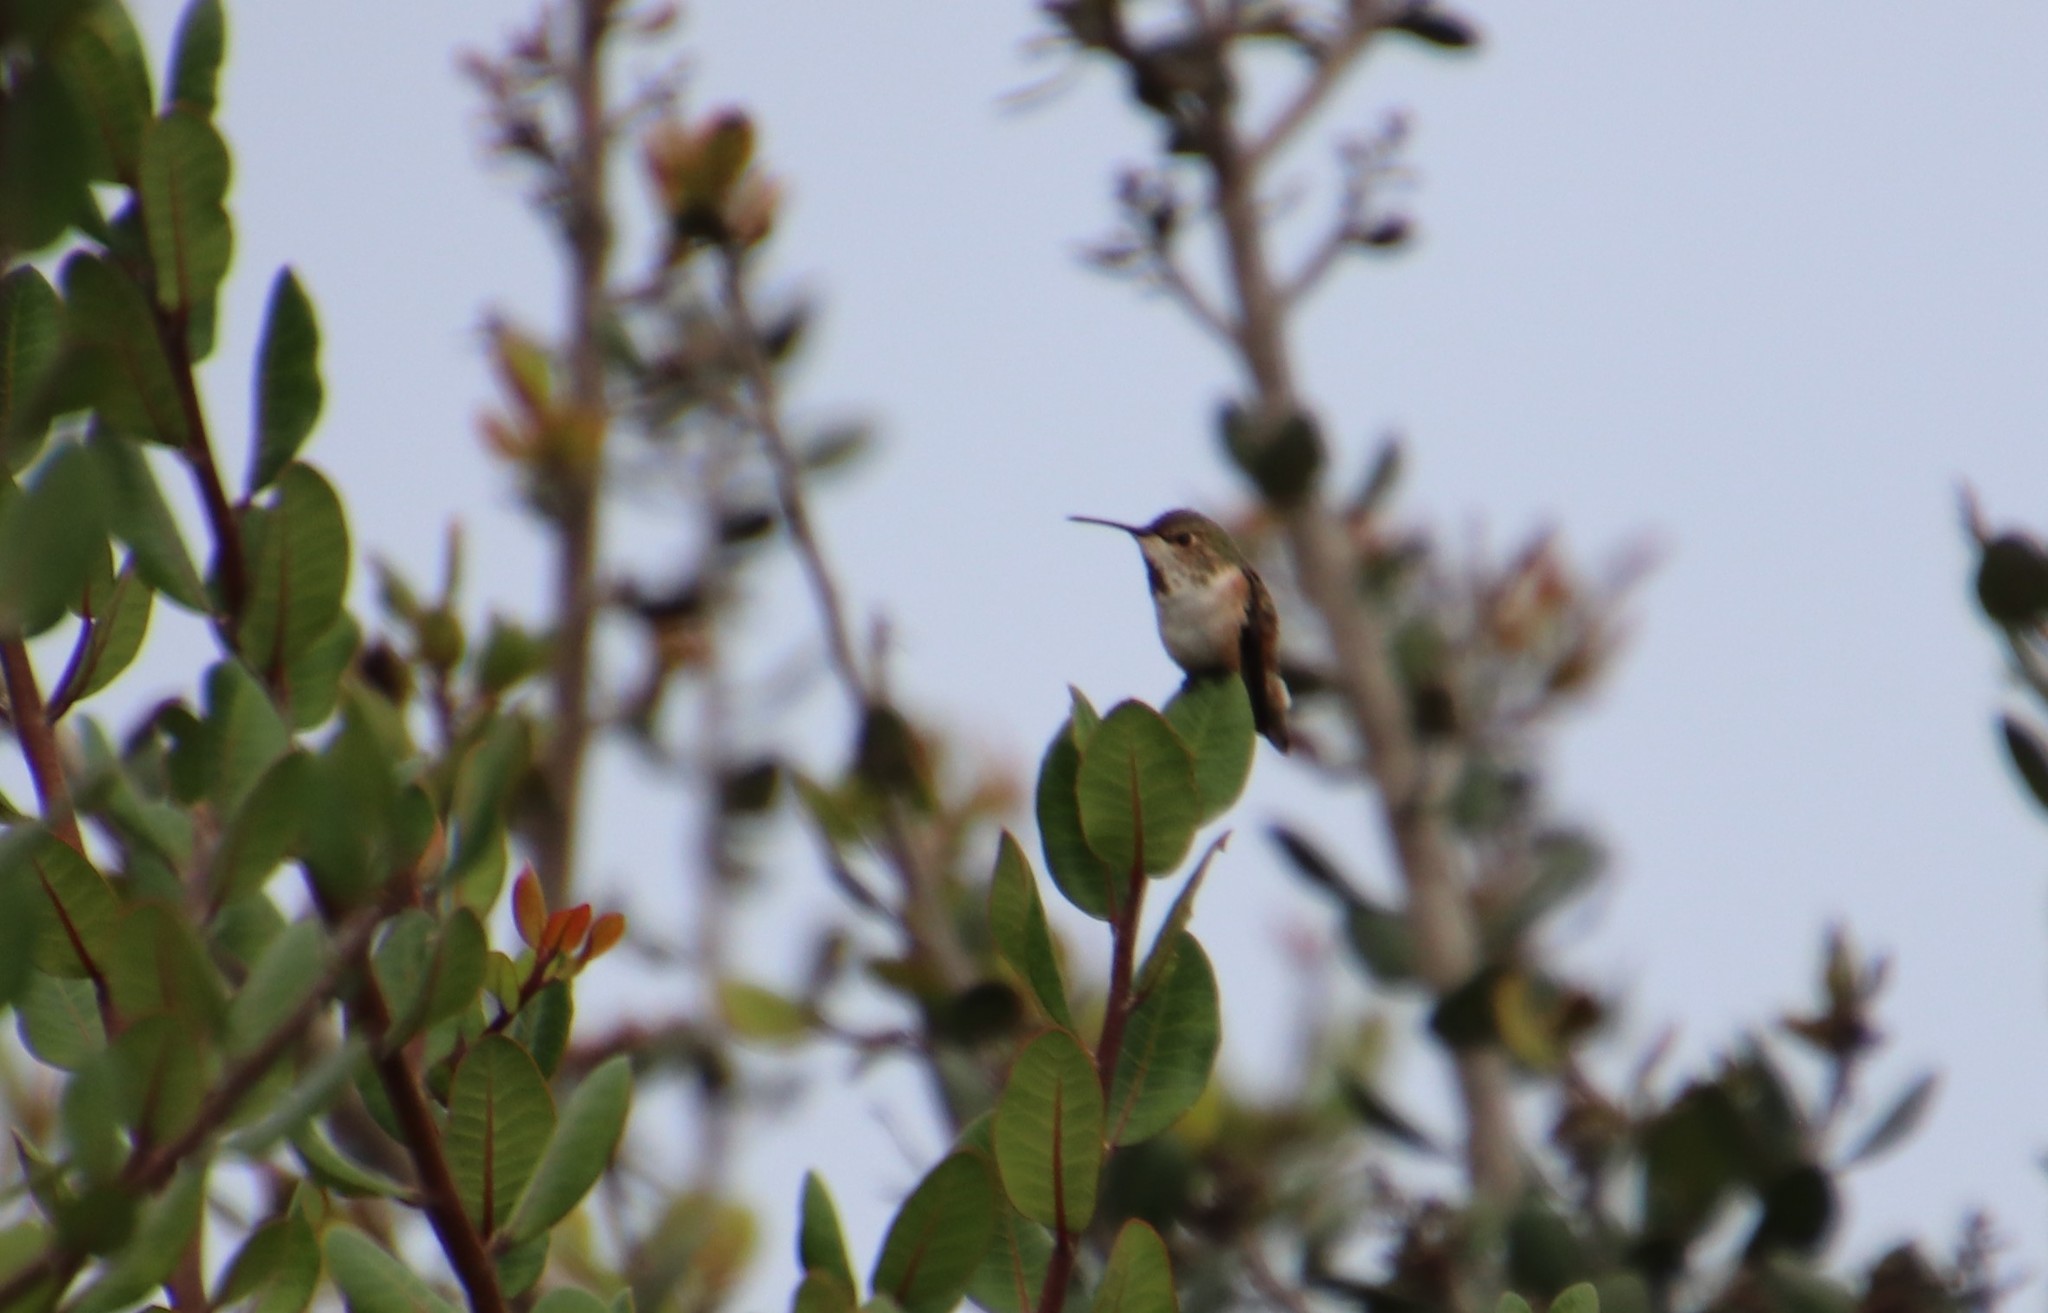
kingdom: Animalia
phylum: Chordata
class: Aves
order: Apodiformes
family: Trochilidae
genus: Selasphorus
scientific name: Selasphorus
